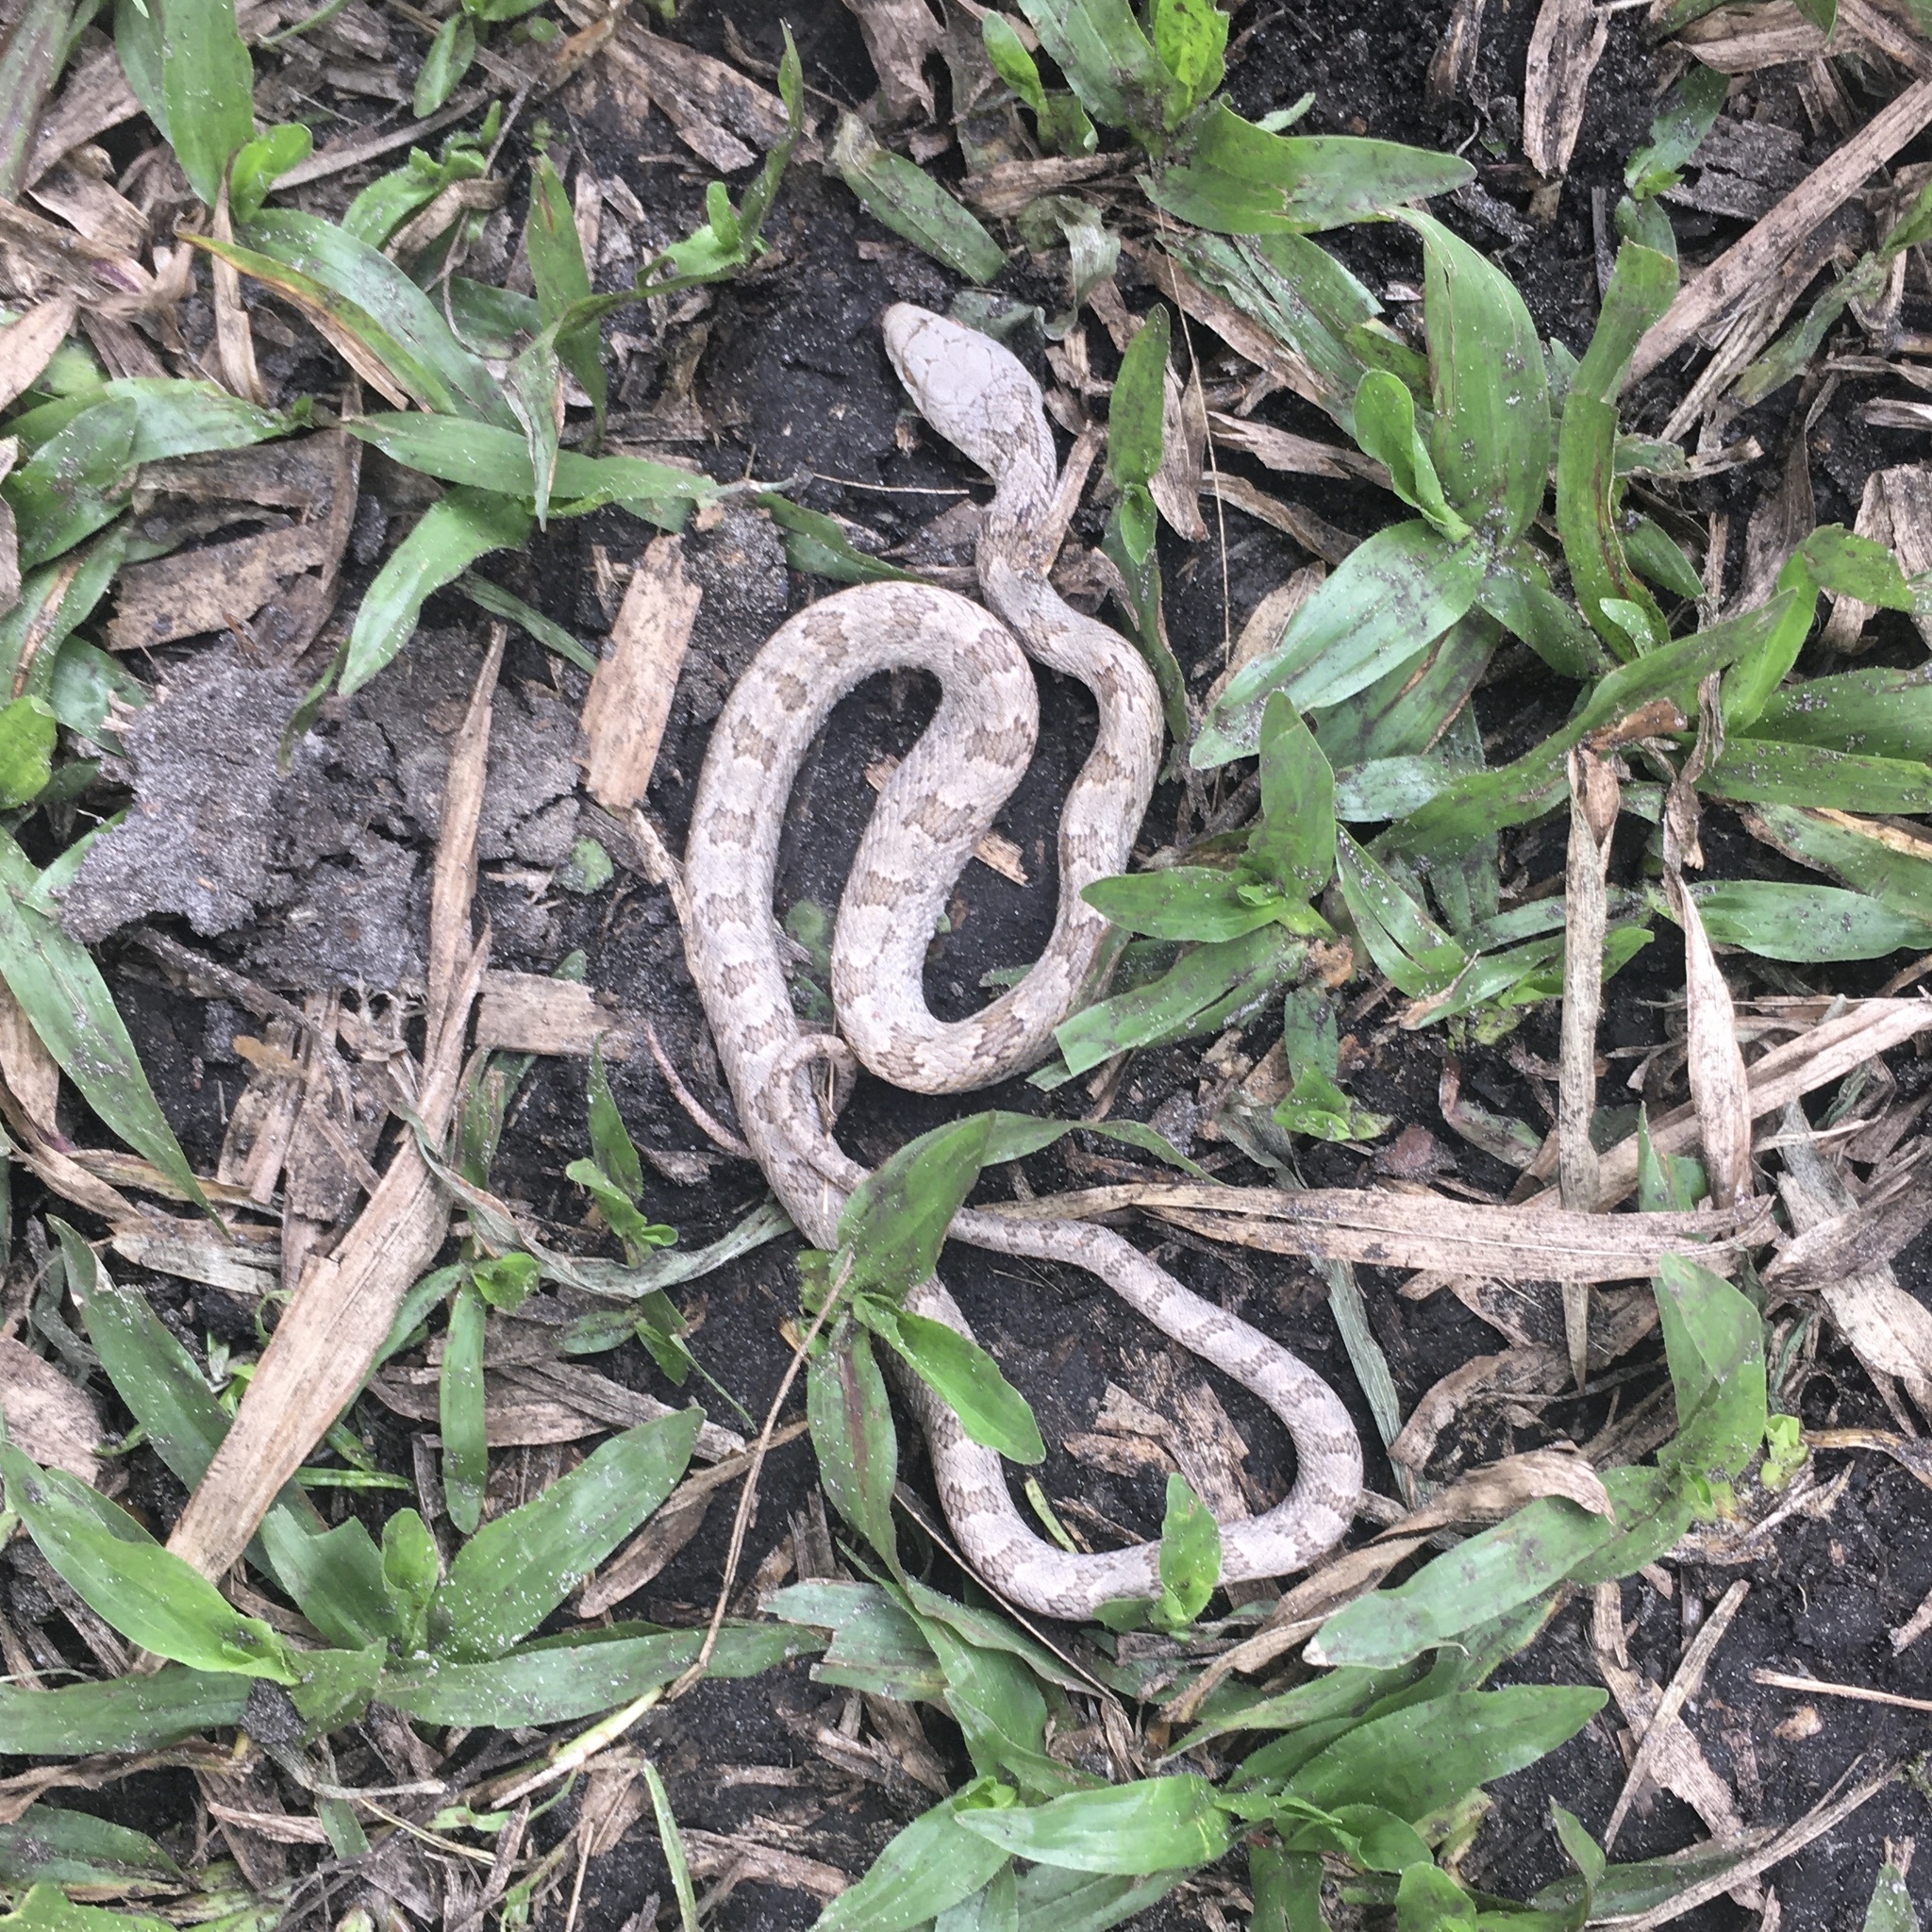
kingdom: Animalia
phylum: Chordata
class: Squamata
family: Colubridae
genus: Pantherophis
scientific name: Pantherophis alleghaniensis
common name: Eastern rat snake
